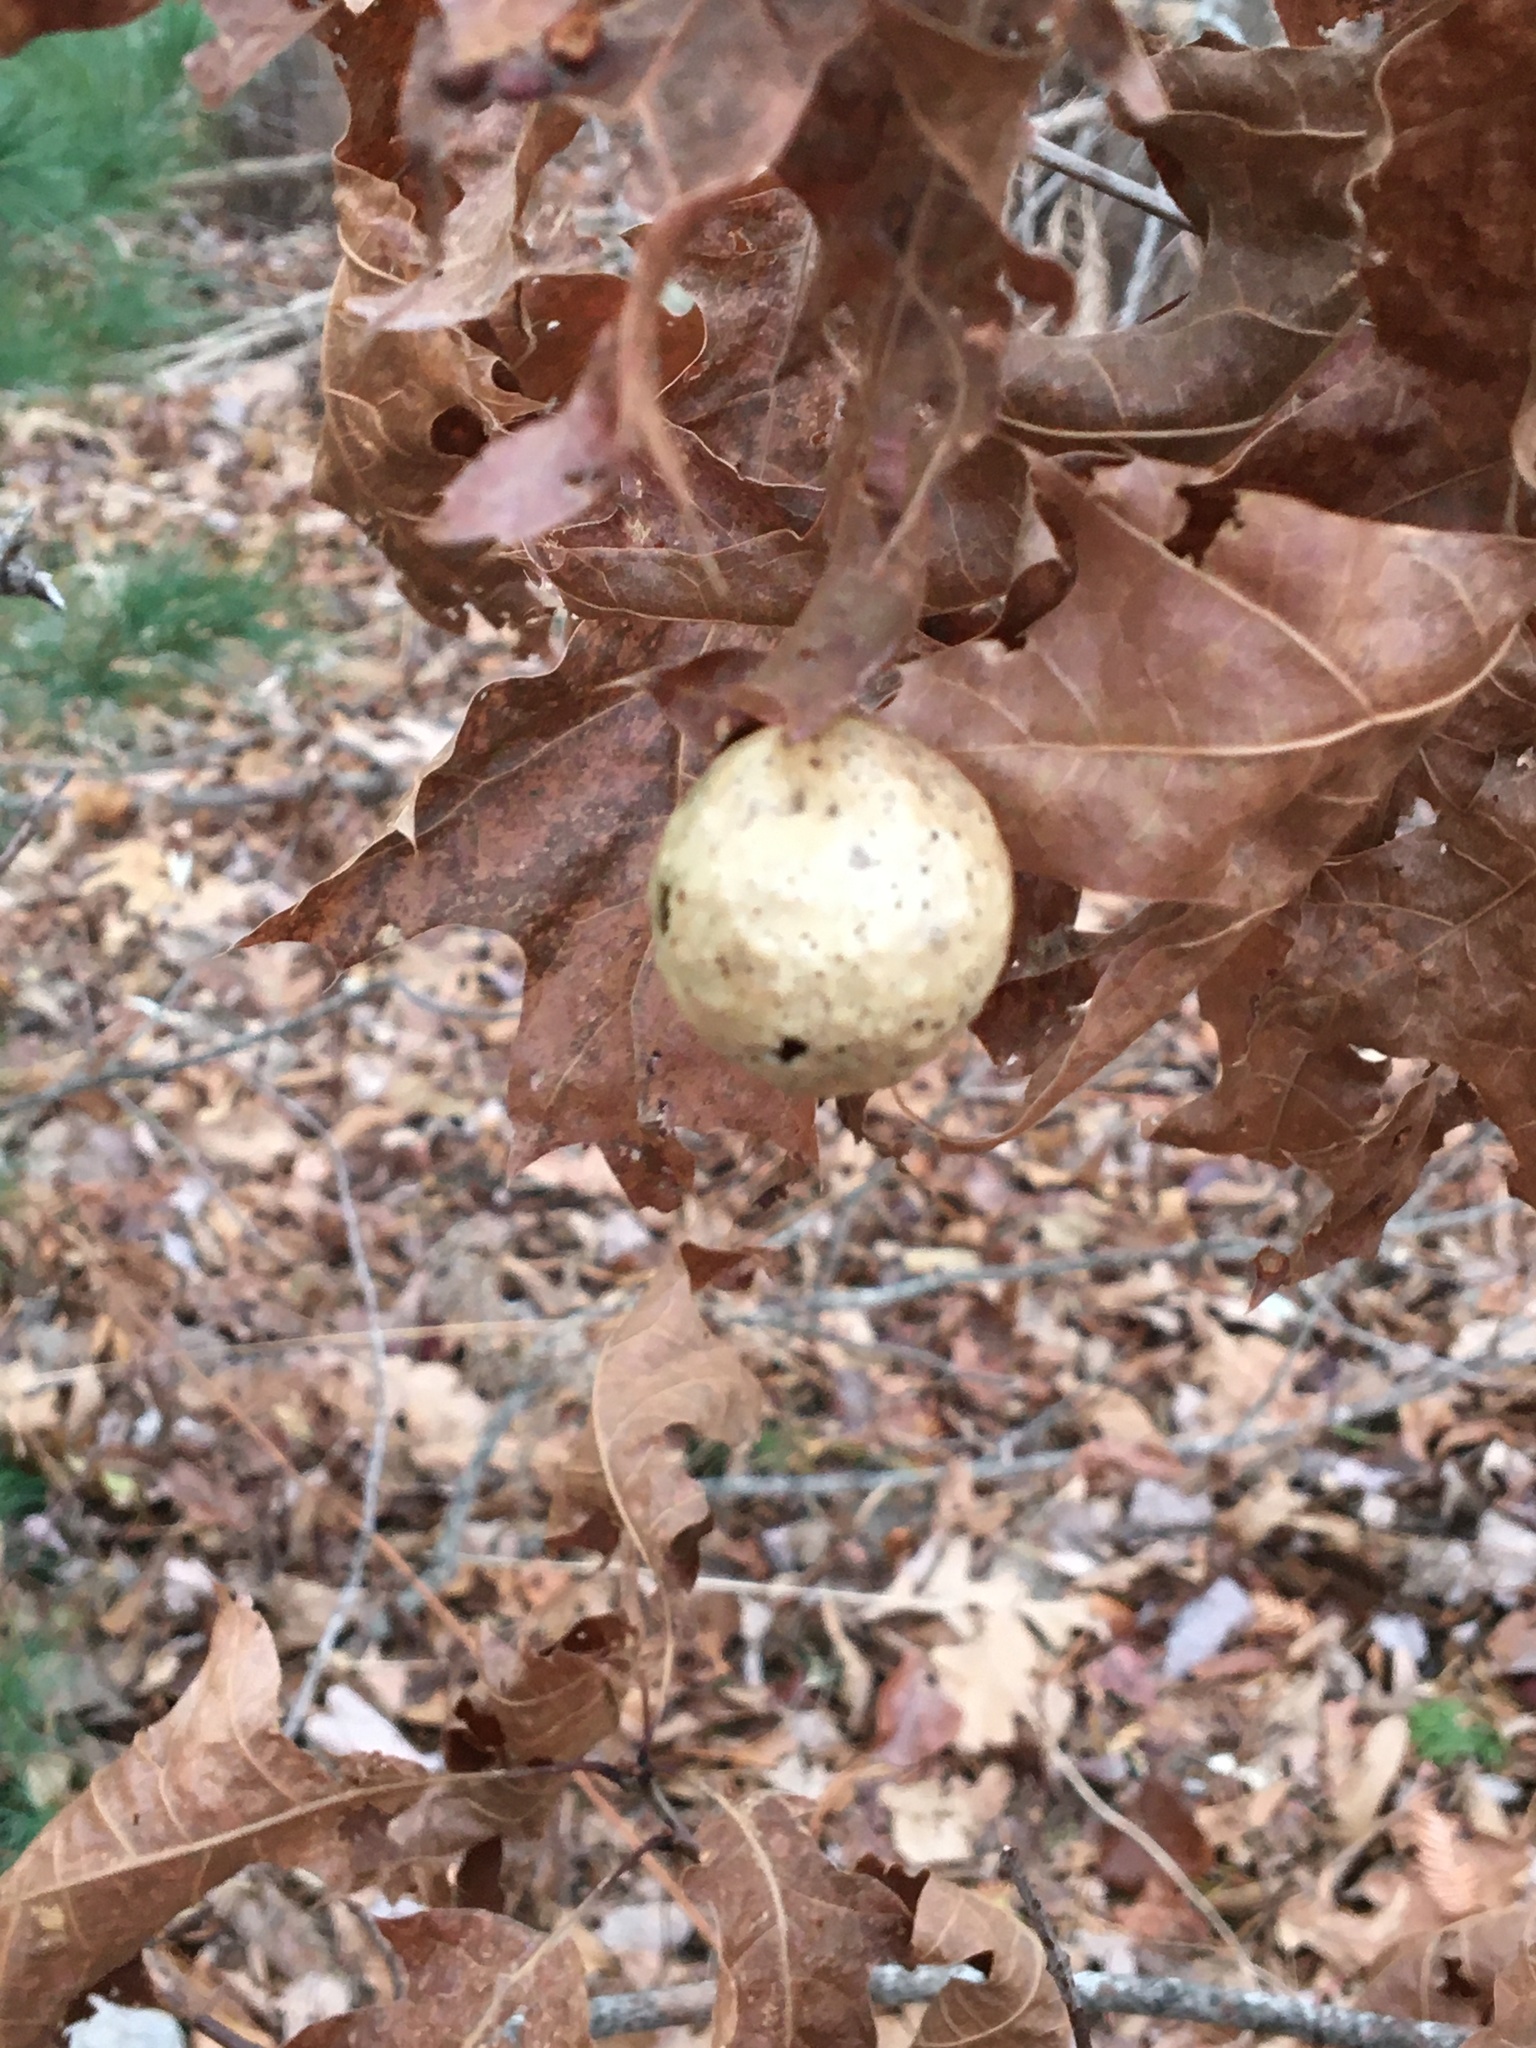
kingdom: Animalia
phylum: Arthropoda
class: Insecta
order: Hymenoptera
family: Cynipidae
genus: Amphibolips
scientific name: Amphibolips
